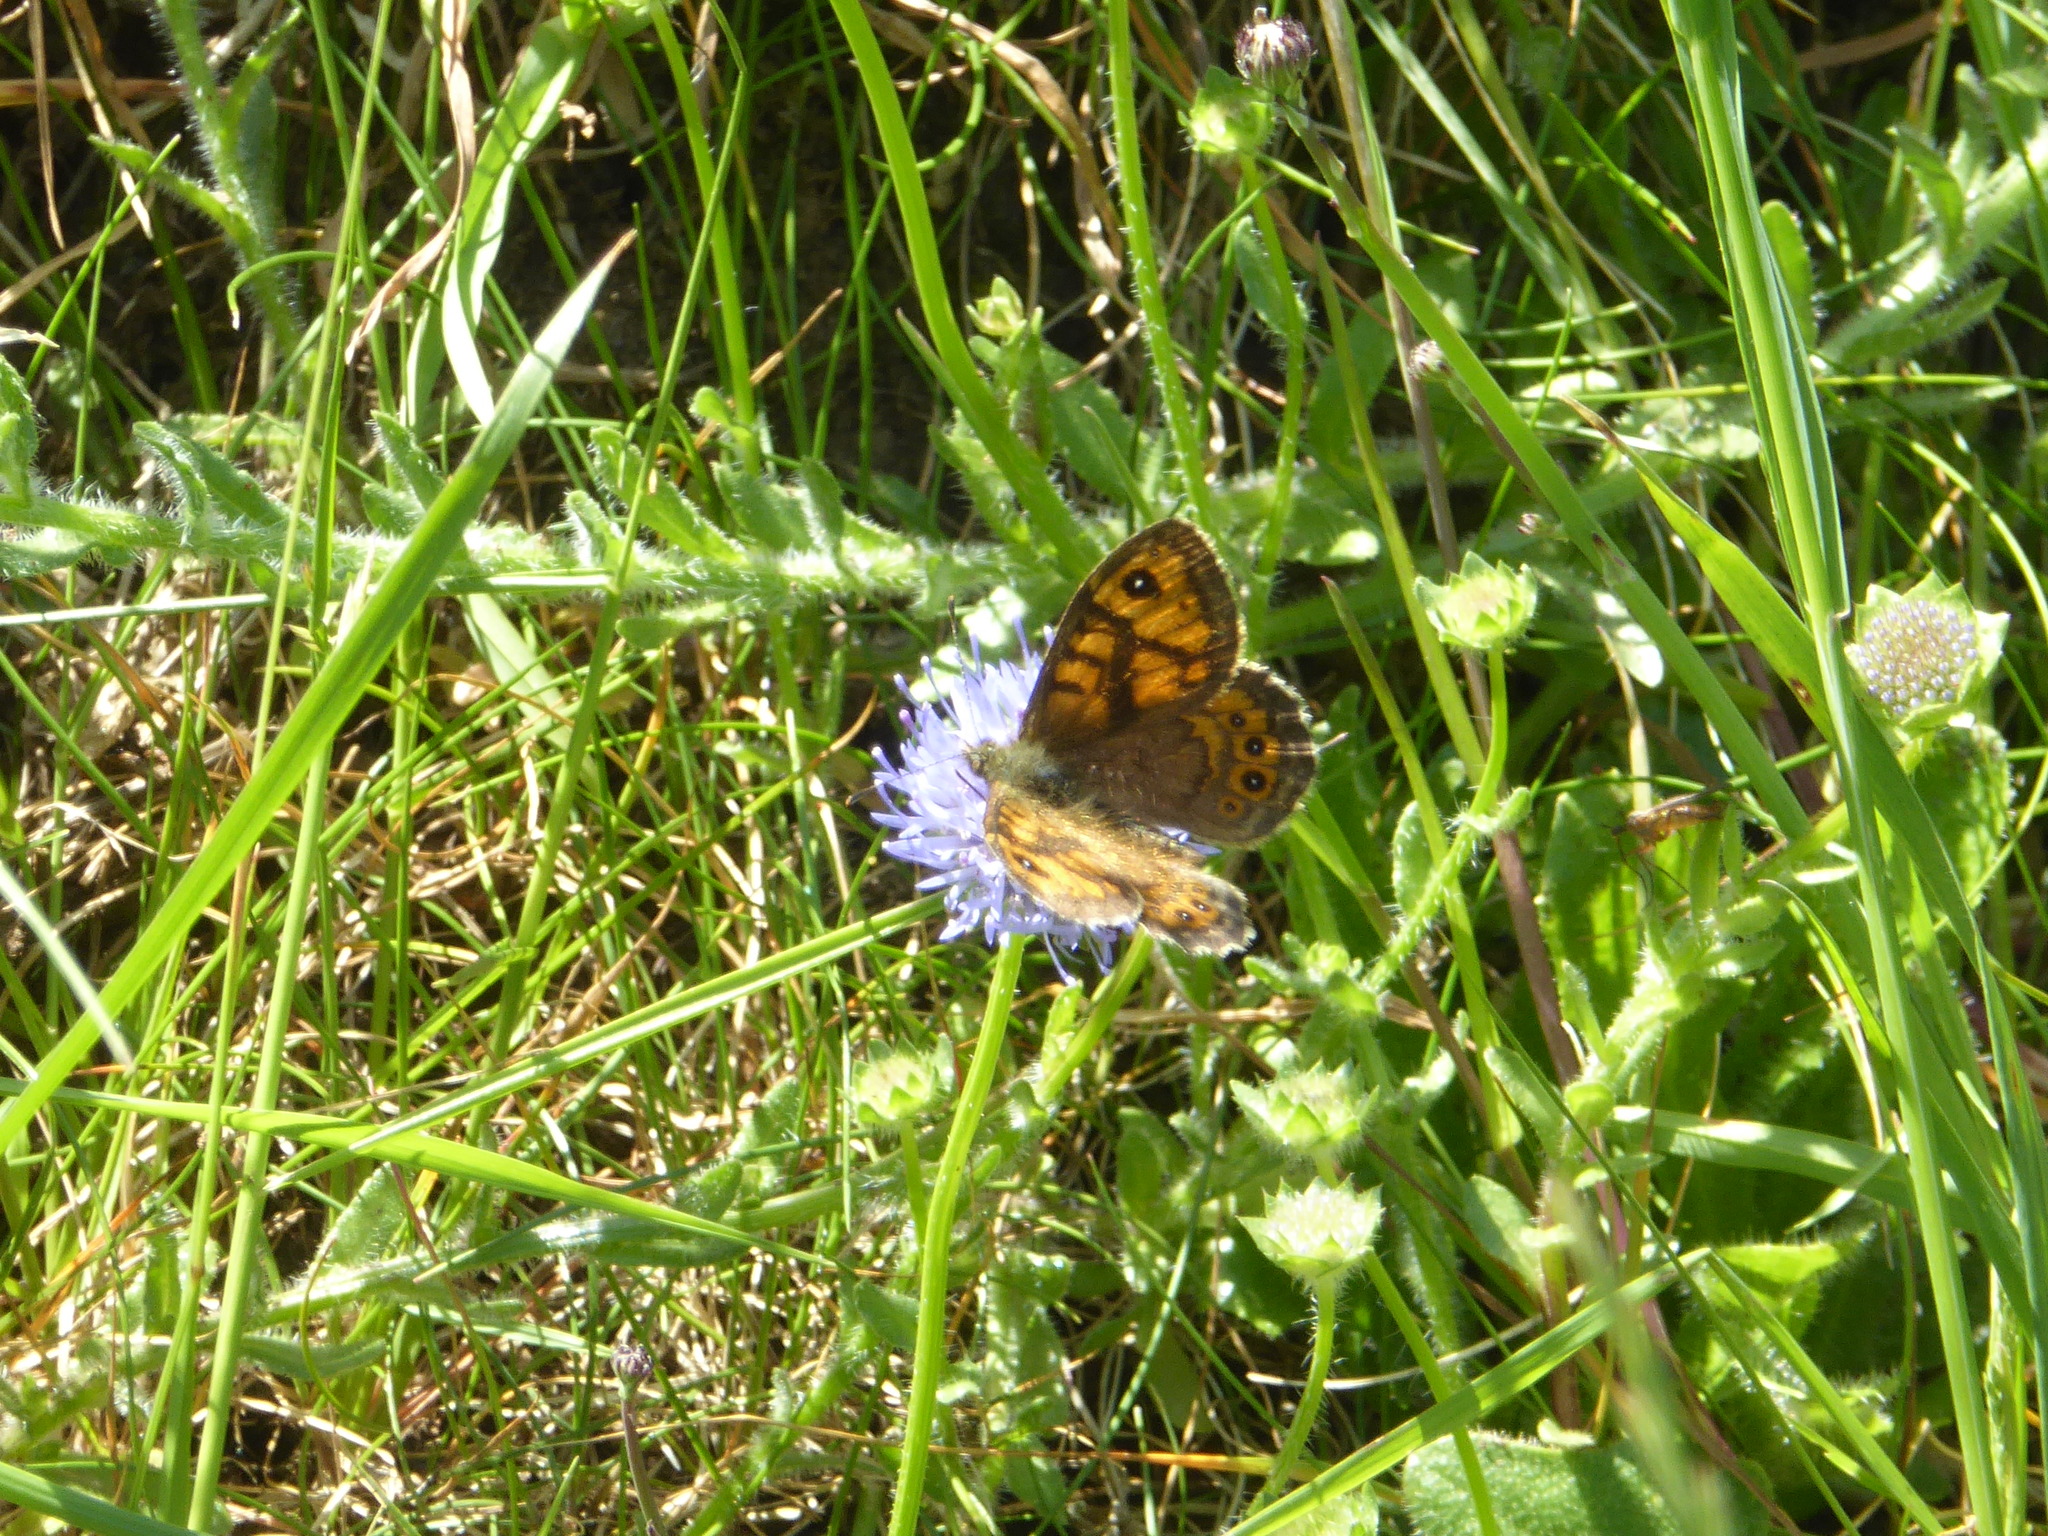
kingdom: Animalia
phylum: Arthropoda
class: Insecta
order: Lepidoptera
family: Nymphalidae
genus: Pararge
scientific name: Pararge Lasiommata megera
